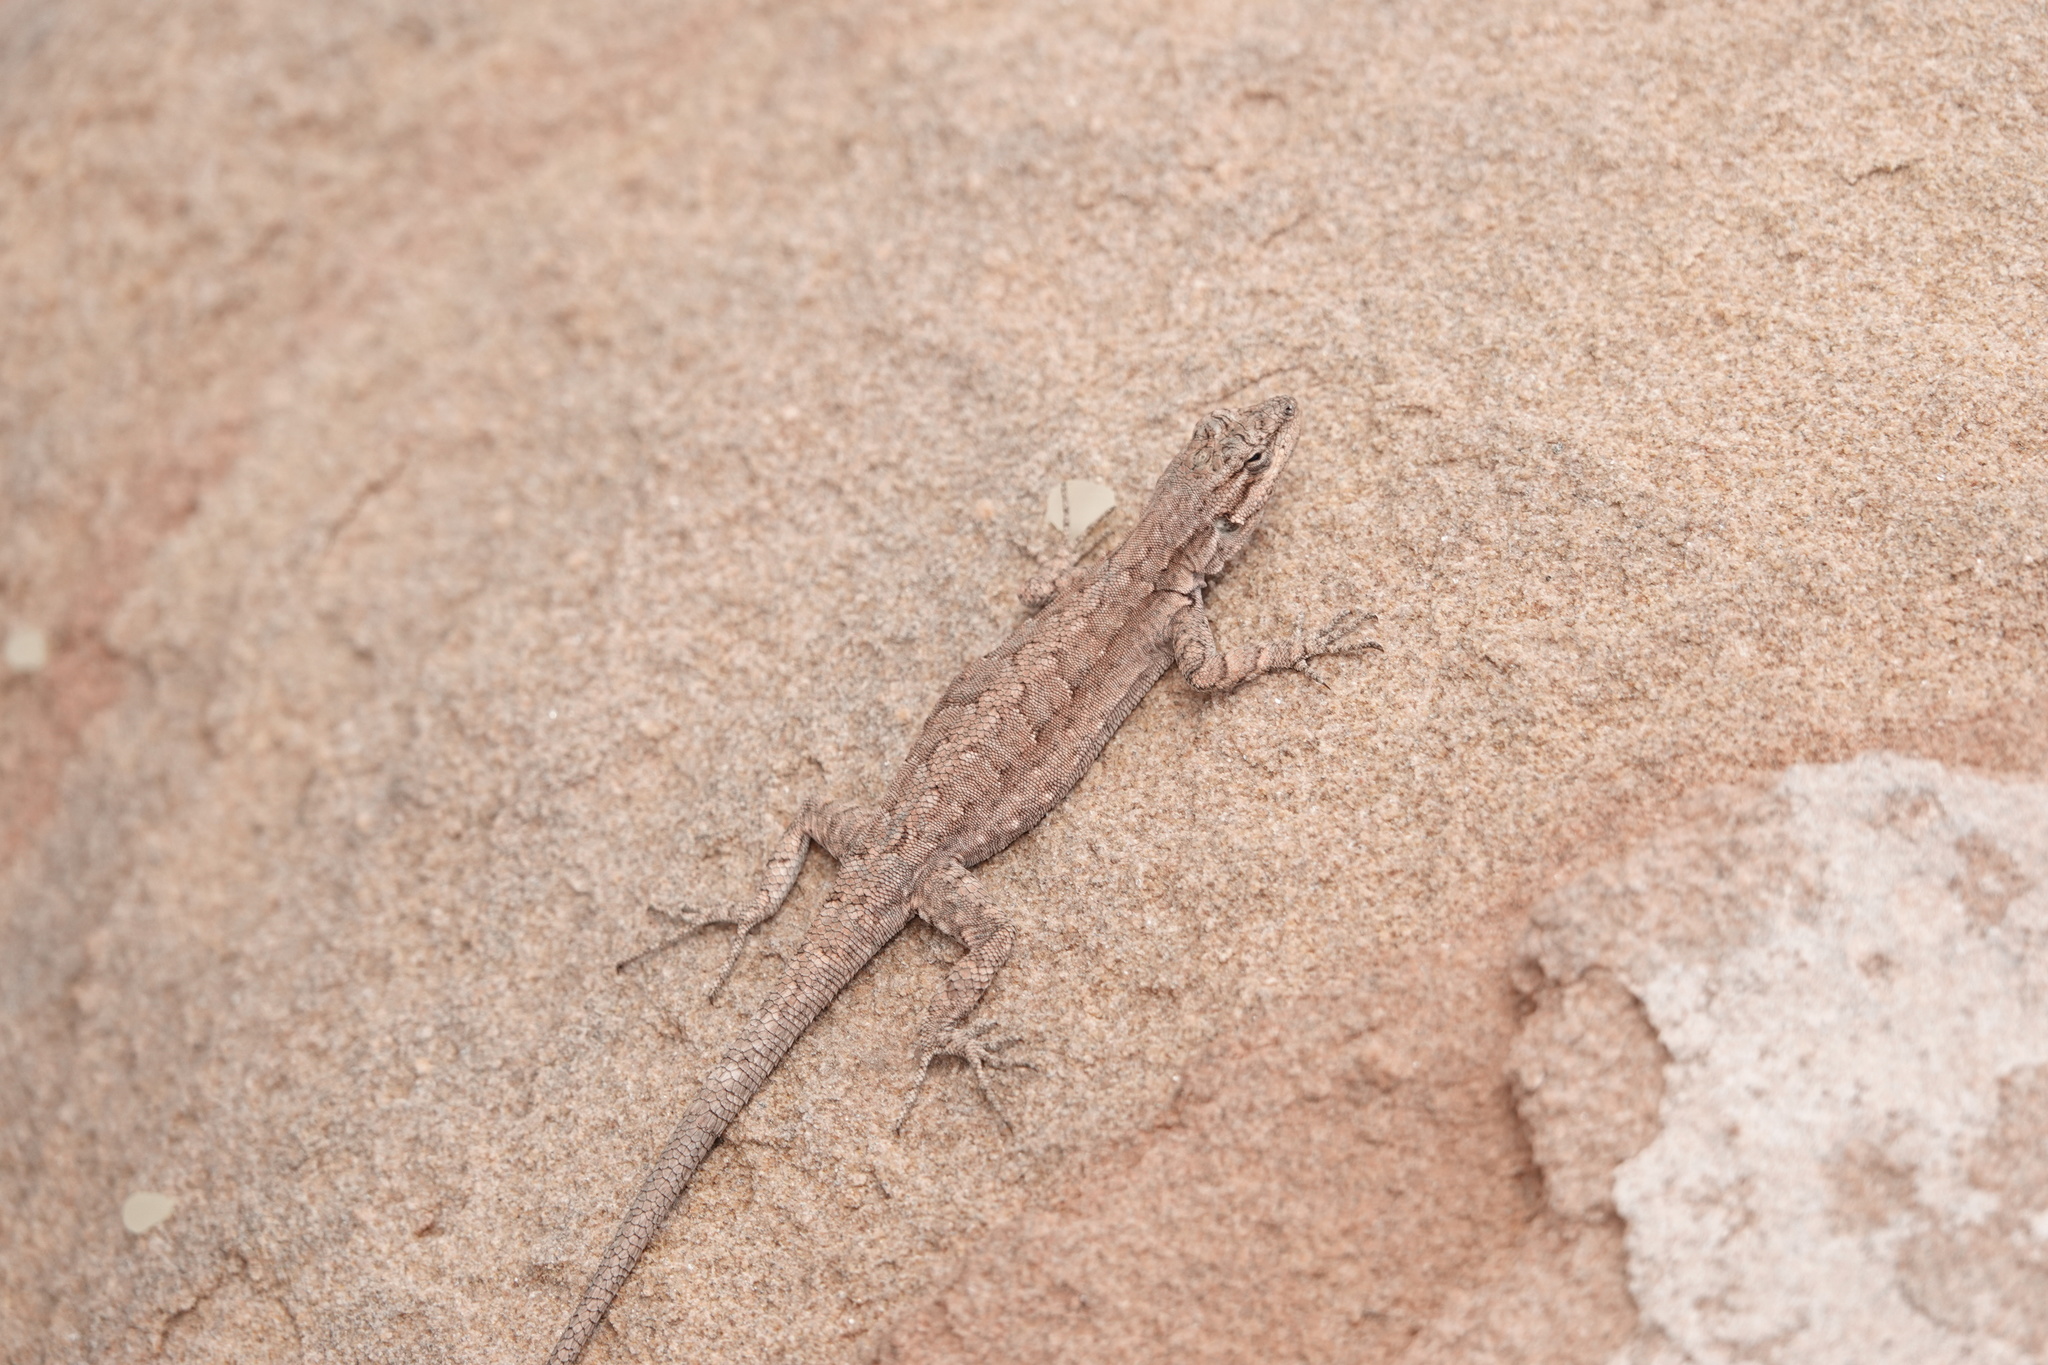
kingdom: Animalia
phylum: Chordata
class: Squamata
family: Phrynosomatidae
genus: Urosaurus
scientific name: Urosaurus ornatus
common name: Ornate tree lizard
